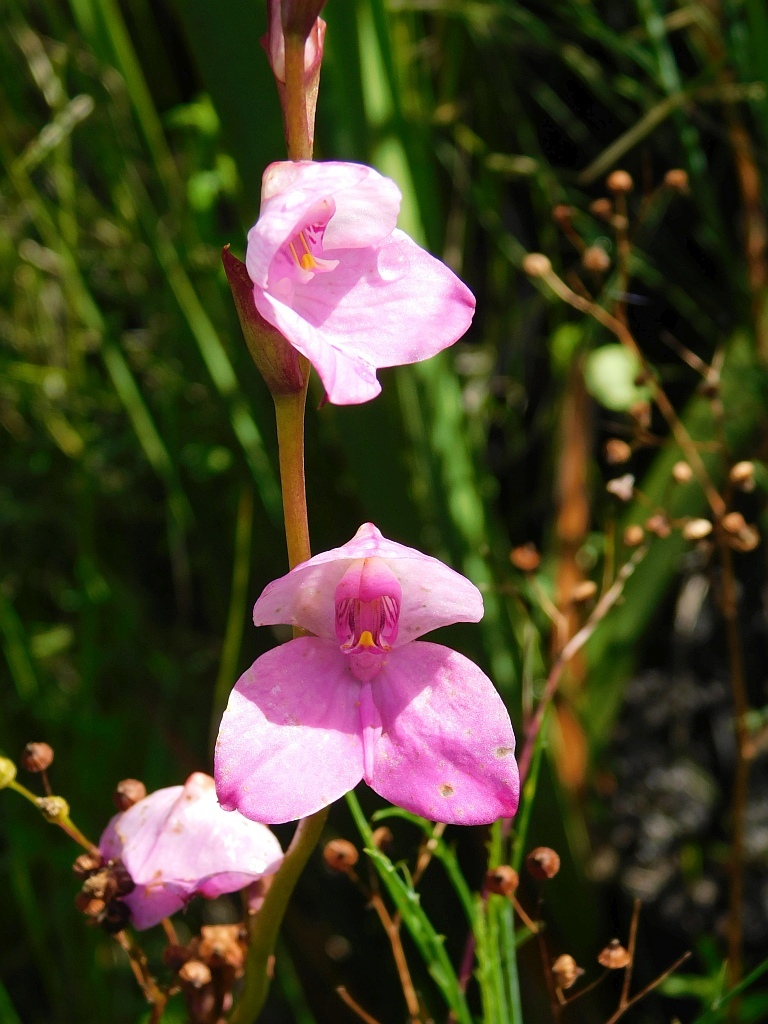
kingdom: Plantae
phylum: Tracheophyta
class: Liliopsida
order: Asparagales
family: Orchidaceae
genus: Disa
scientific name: Disa racemosa
